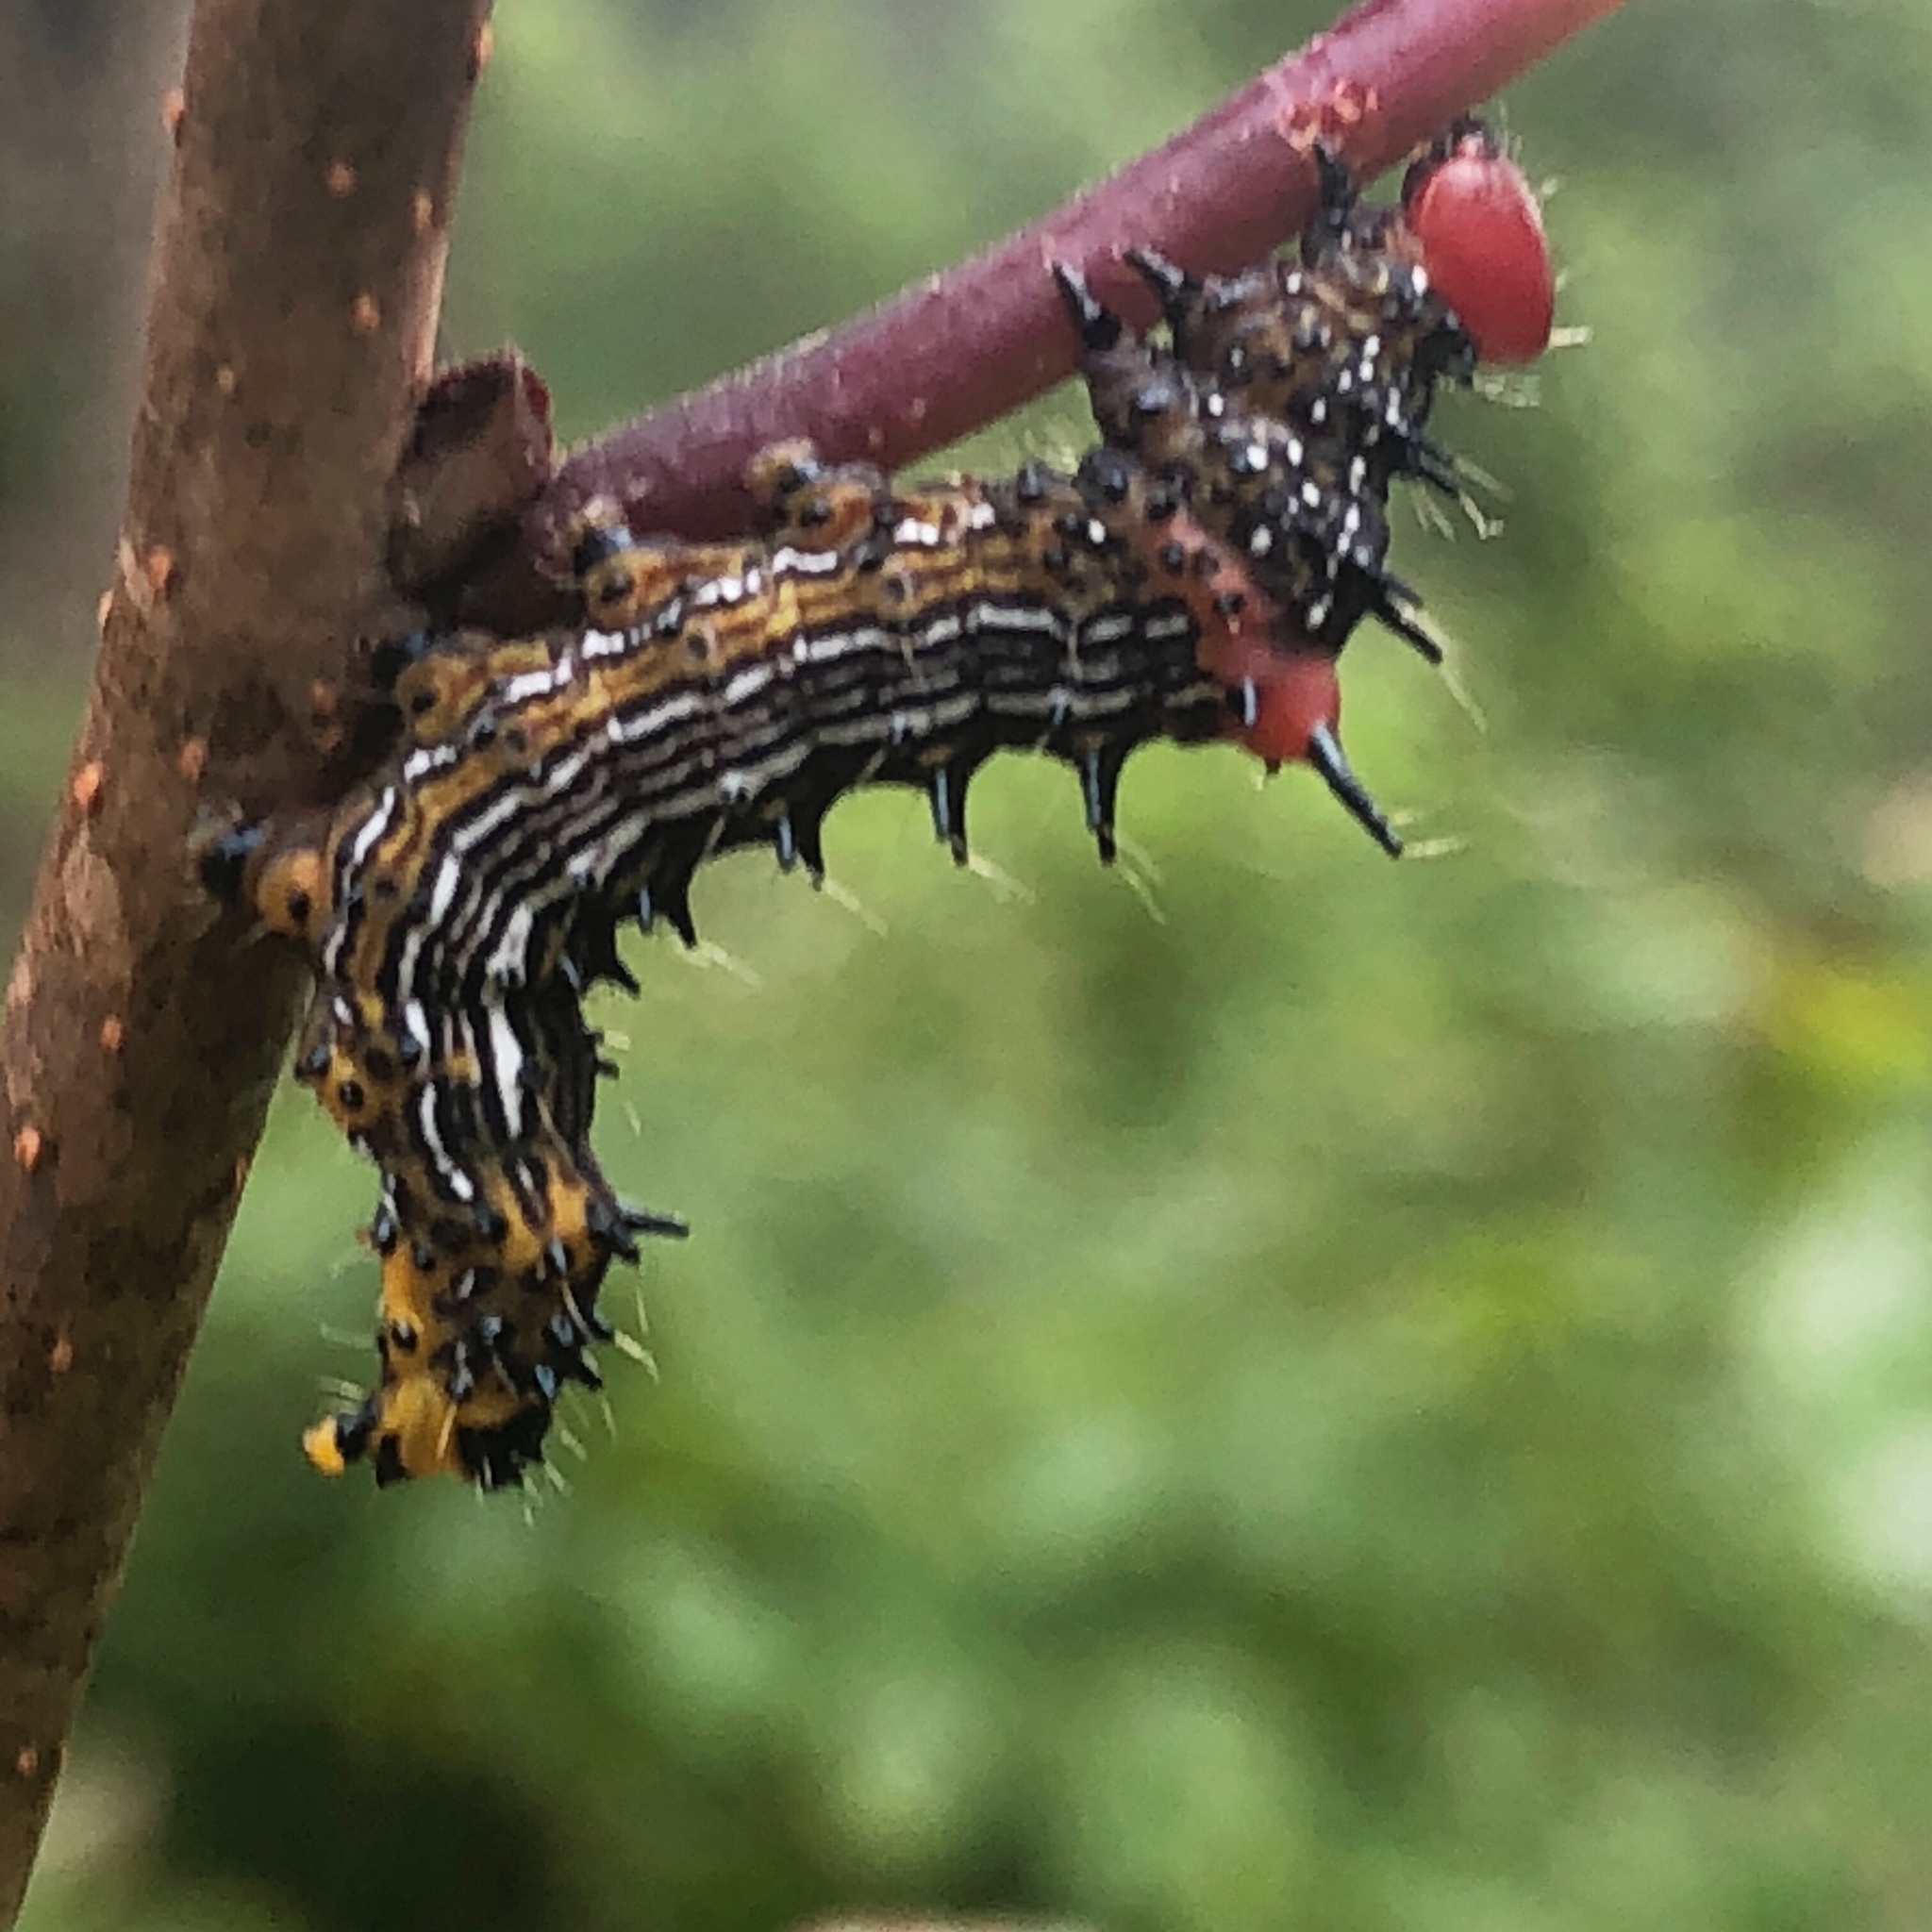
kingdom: Animalia
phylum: Arthropoda
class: Insecta
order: Lepidoptera
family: Notodontidae
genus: Schizura
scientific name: Schizura
